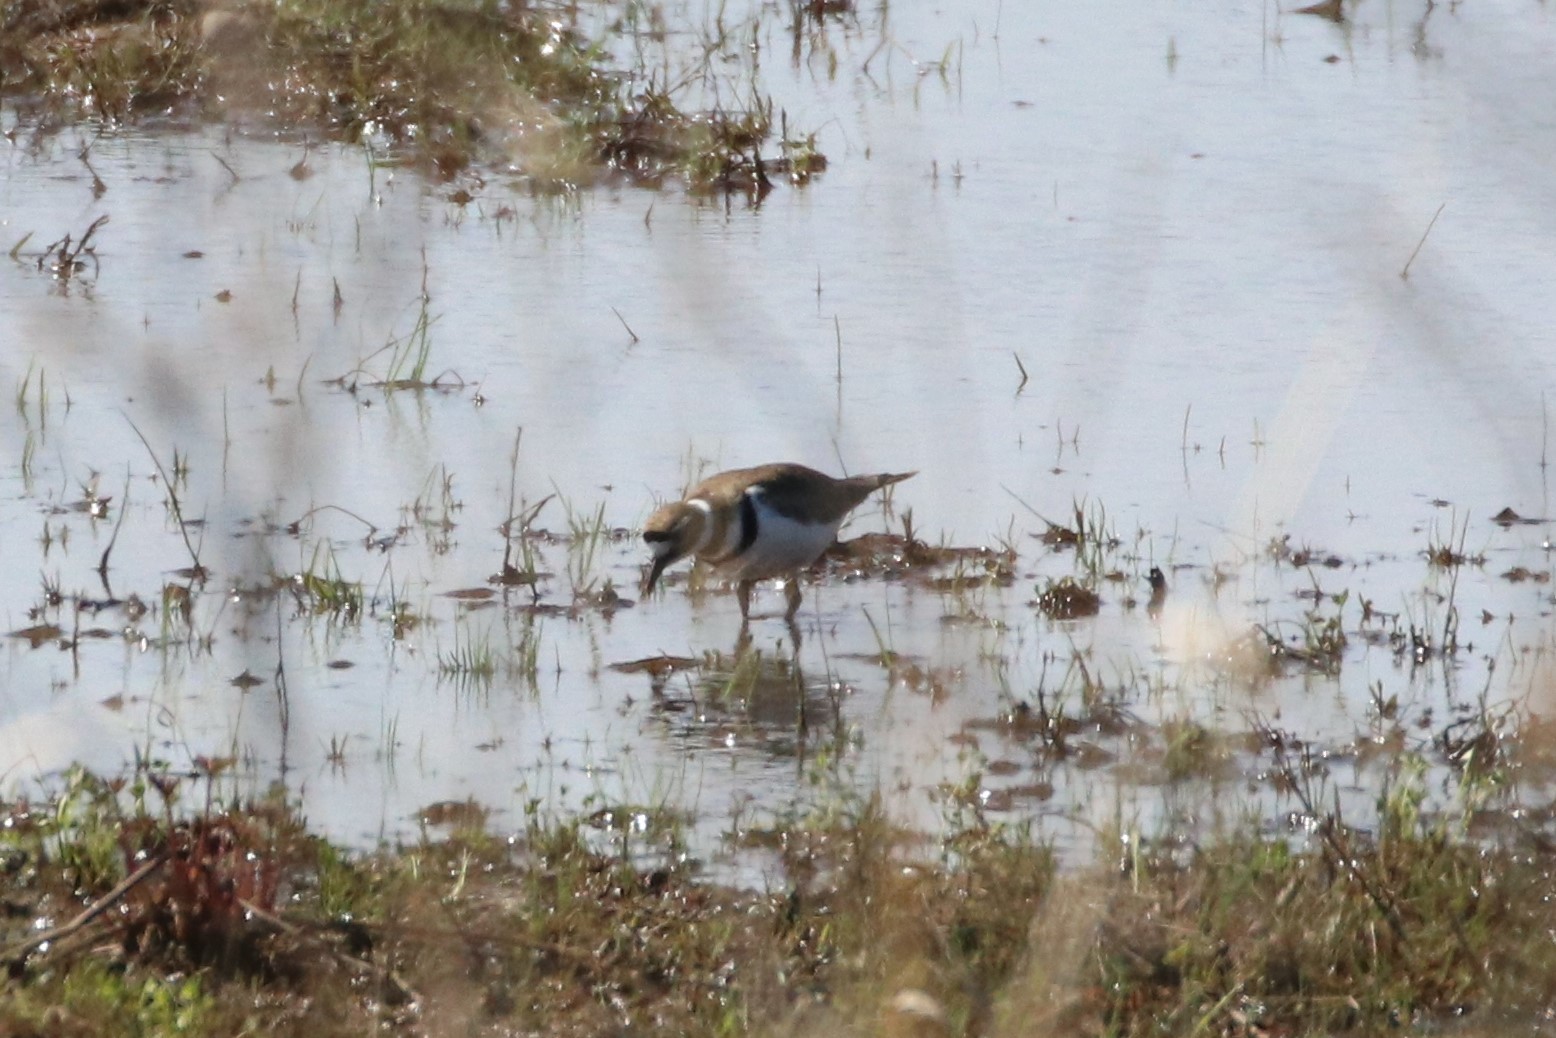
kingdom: Animalia
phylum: Chordata
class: Aves
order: Charadriiformes
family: Charadriidae
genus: Charadrius
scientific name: Charadrius vociferus
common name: Killdeer
